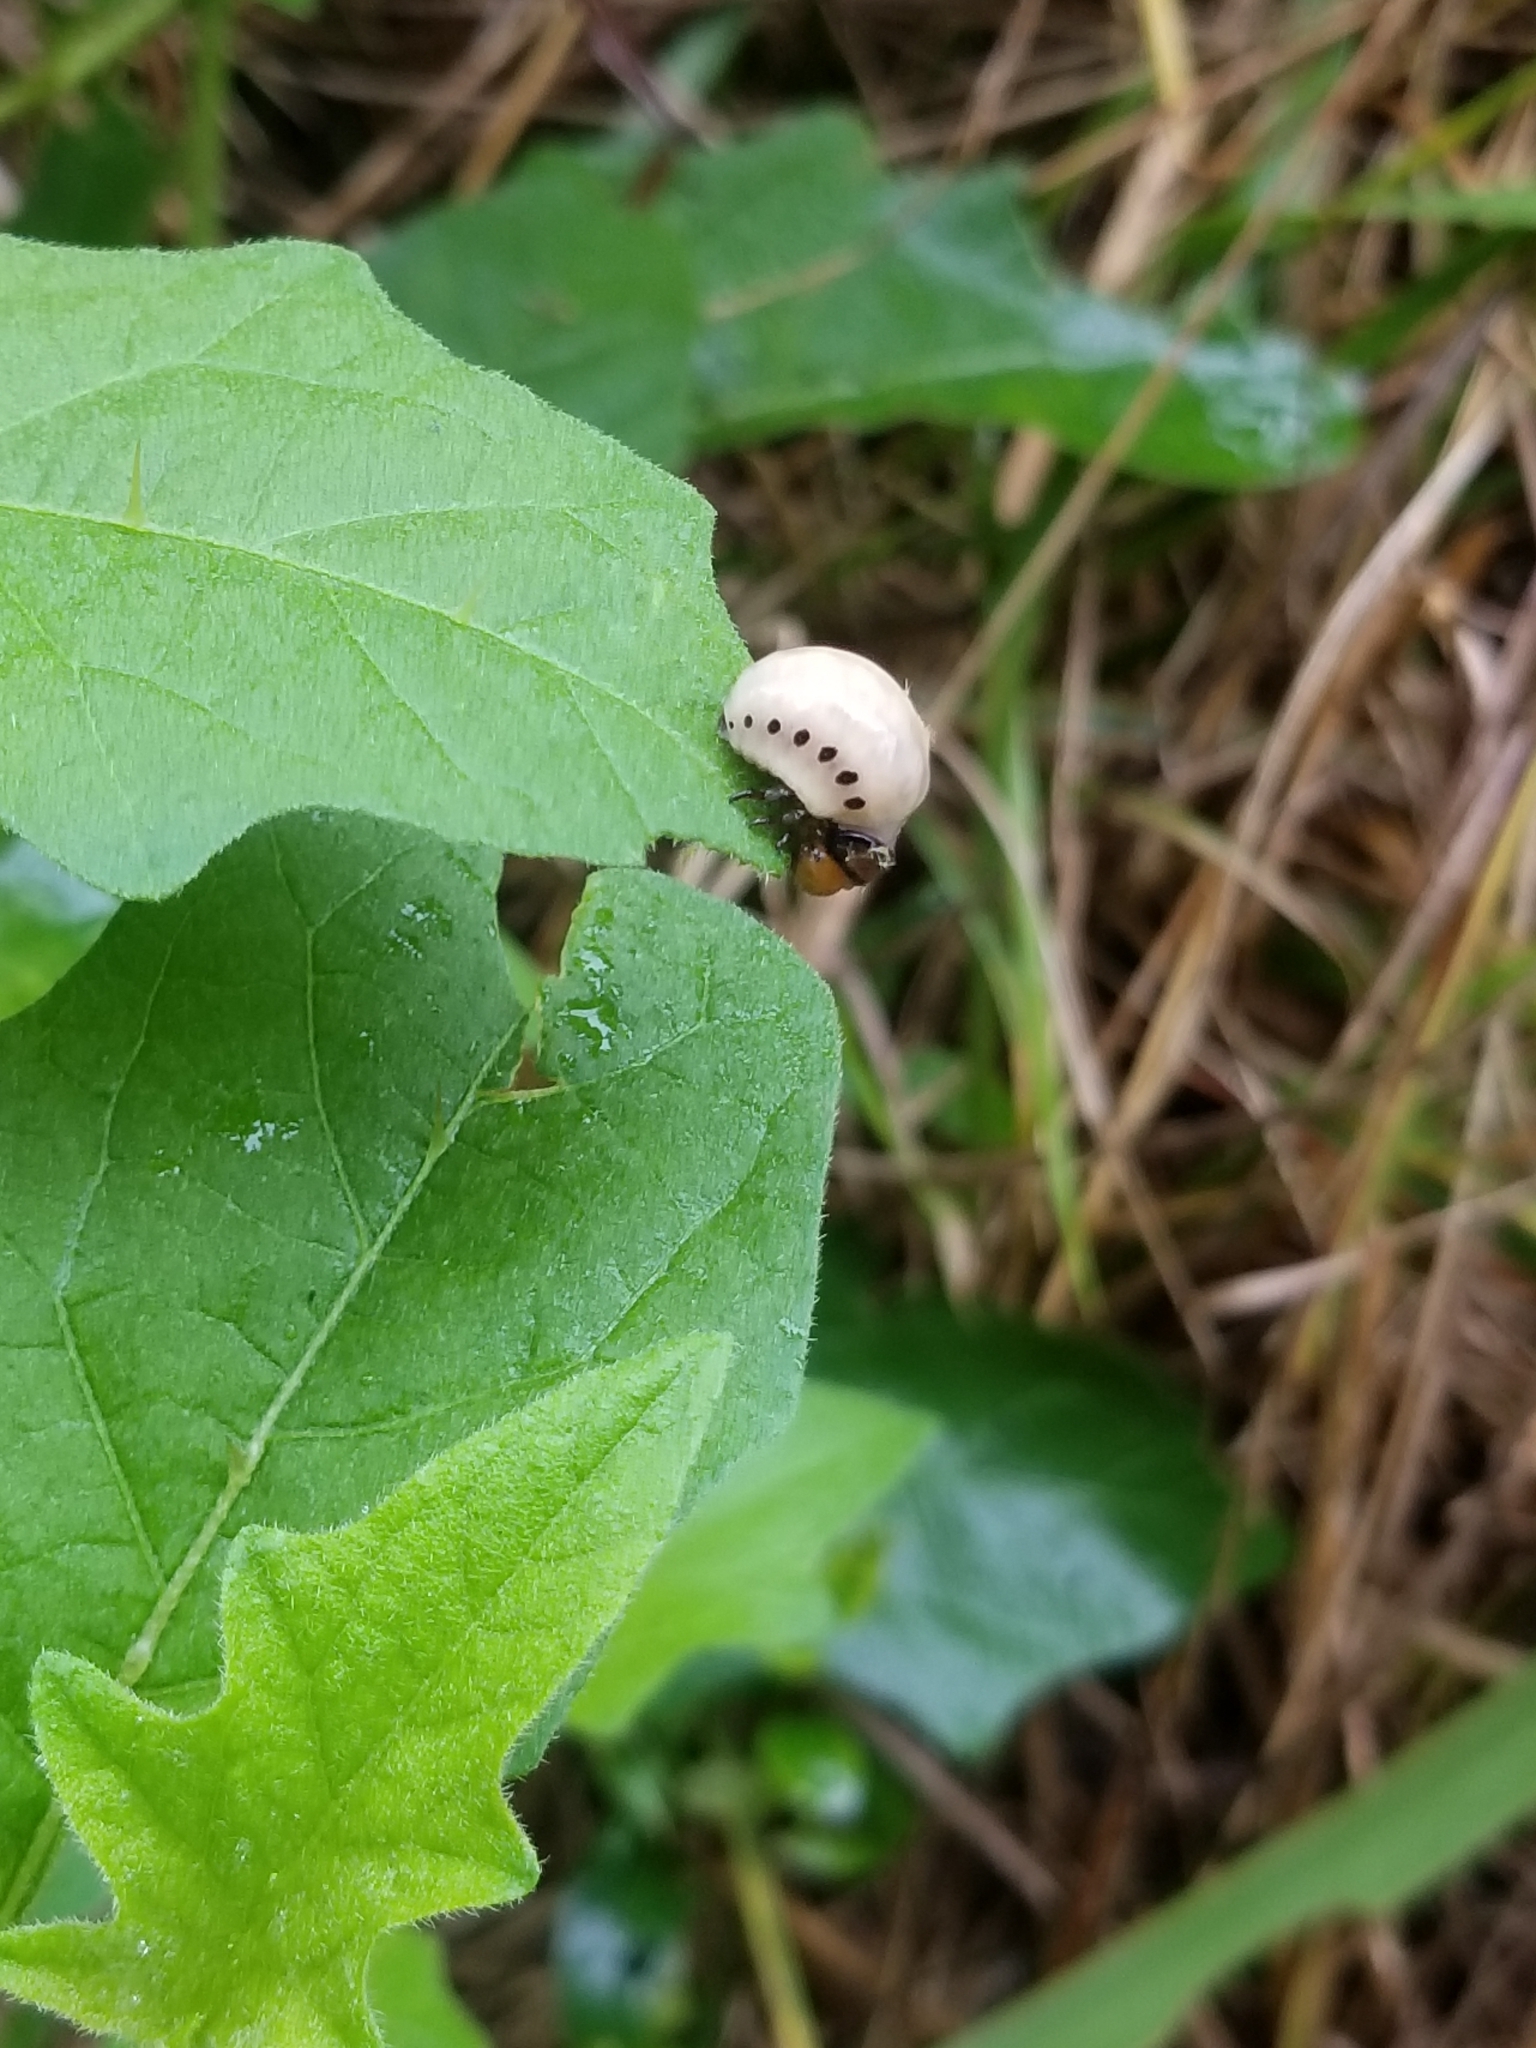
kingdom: Animalia
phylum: Arthropoda
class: Insecta
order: Coleoptera
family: Chrysomelidae
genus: Leptinotarsa
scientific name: Leptinotarsa juncta
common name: False potato beetle
